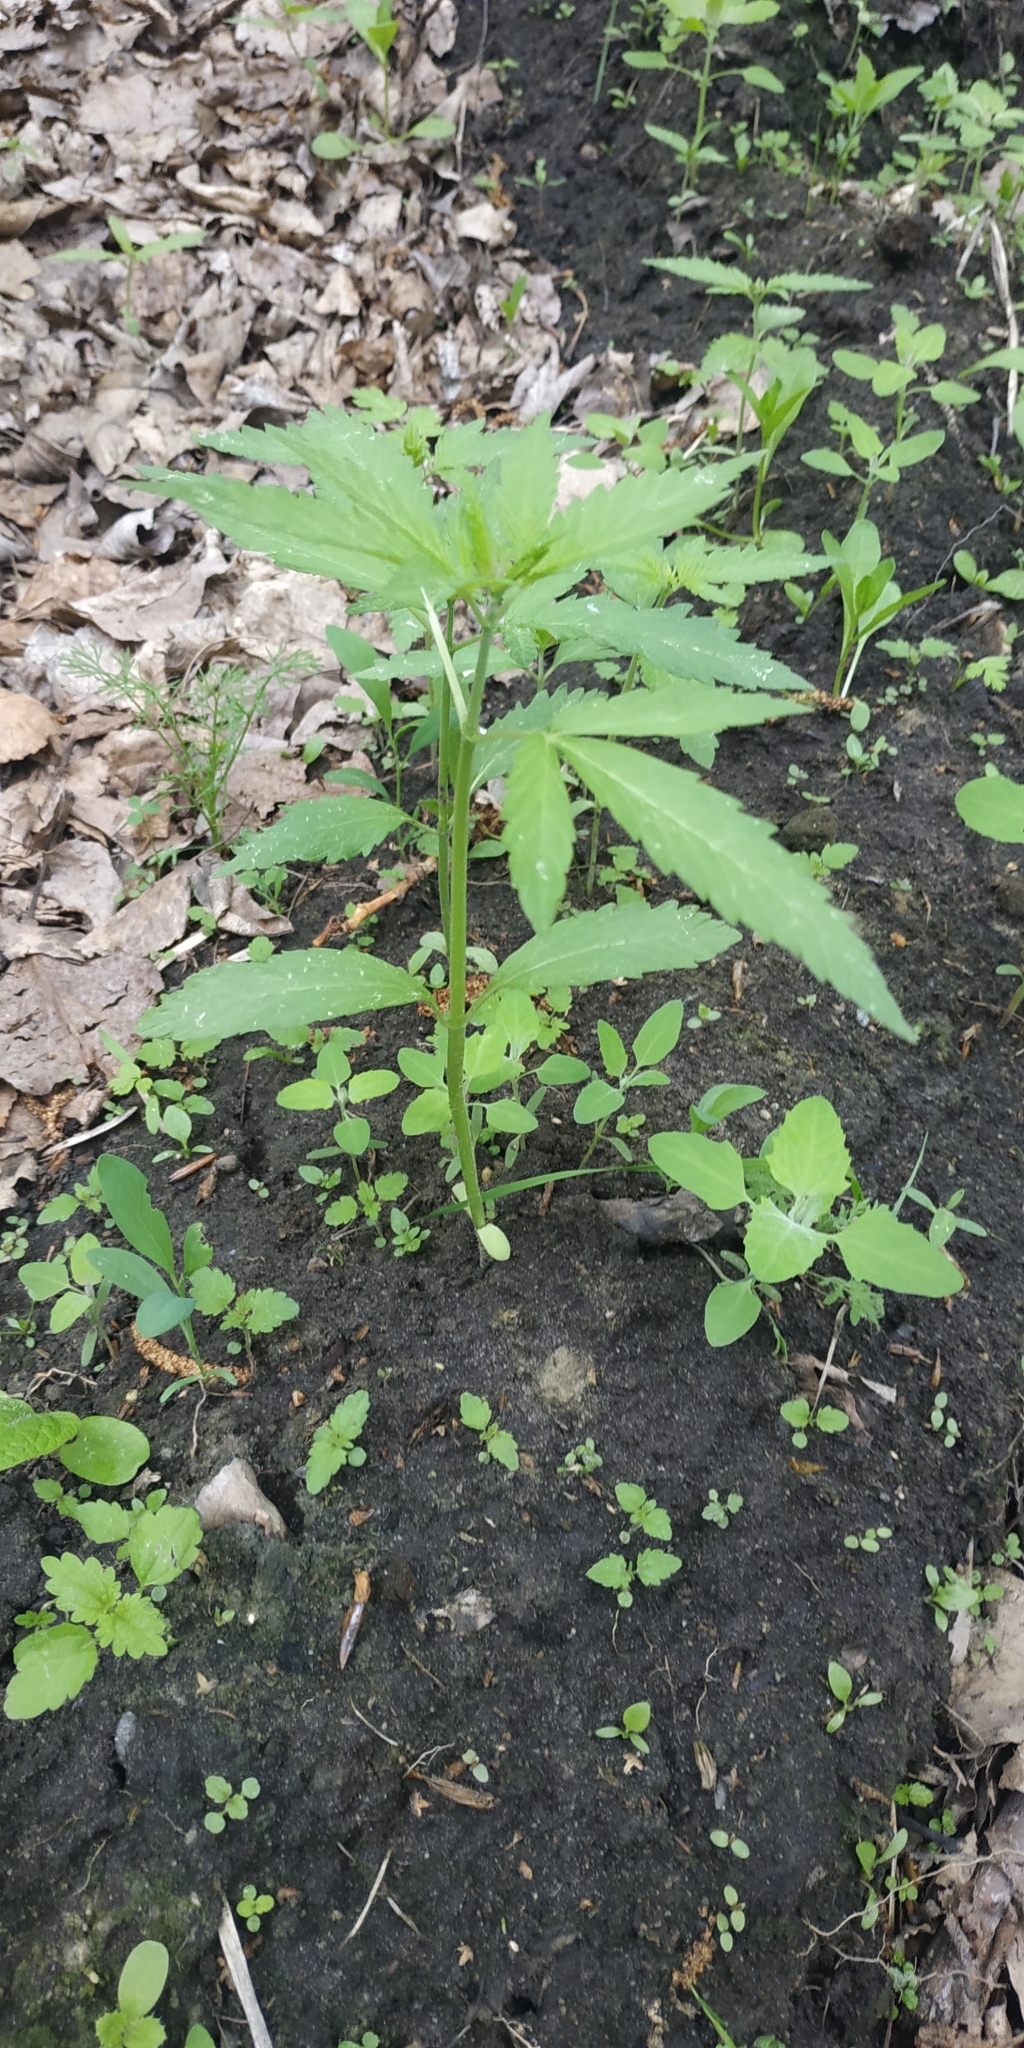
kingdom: Plantae
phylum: Tracheophyta
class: Magnoliopsida
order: Rosales
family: Cannabaceae
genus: Cannabis
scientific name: Cannabis sativa
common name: Hemp
